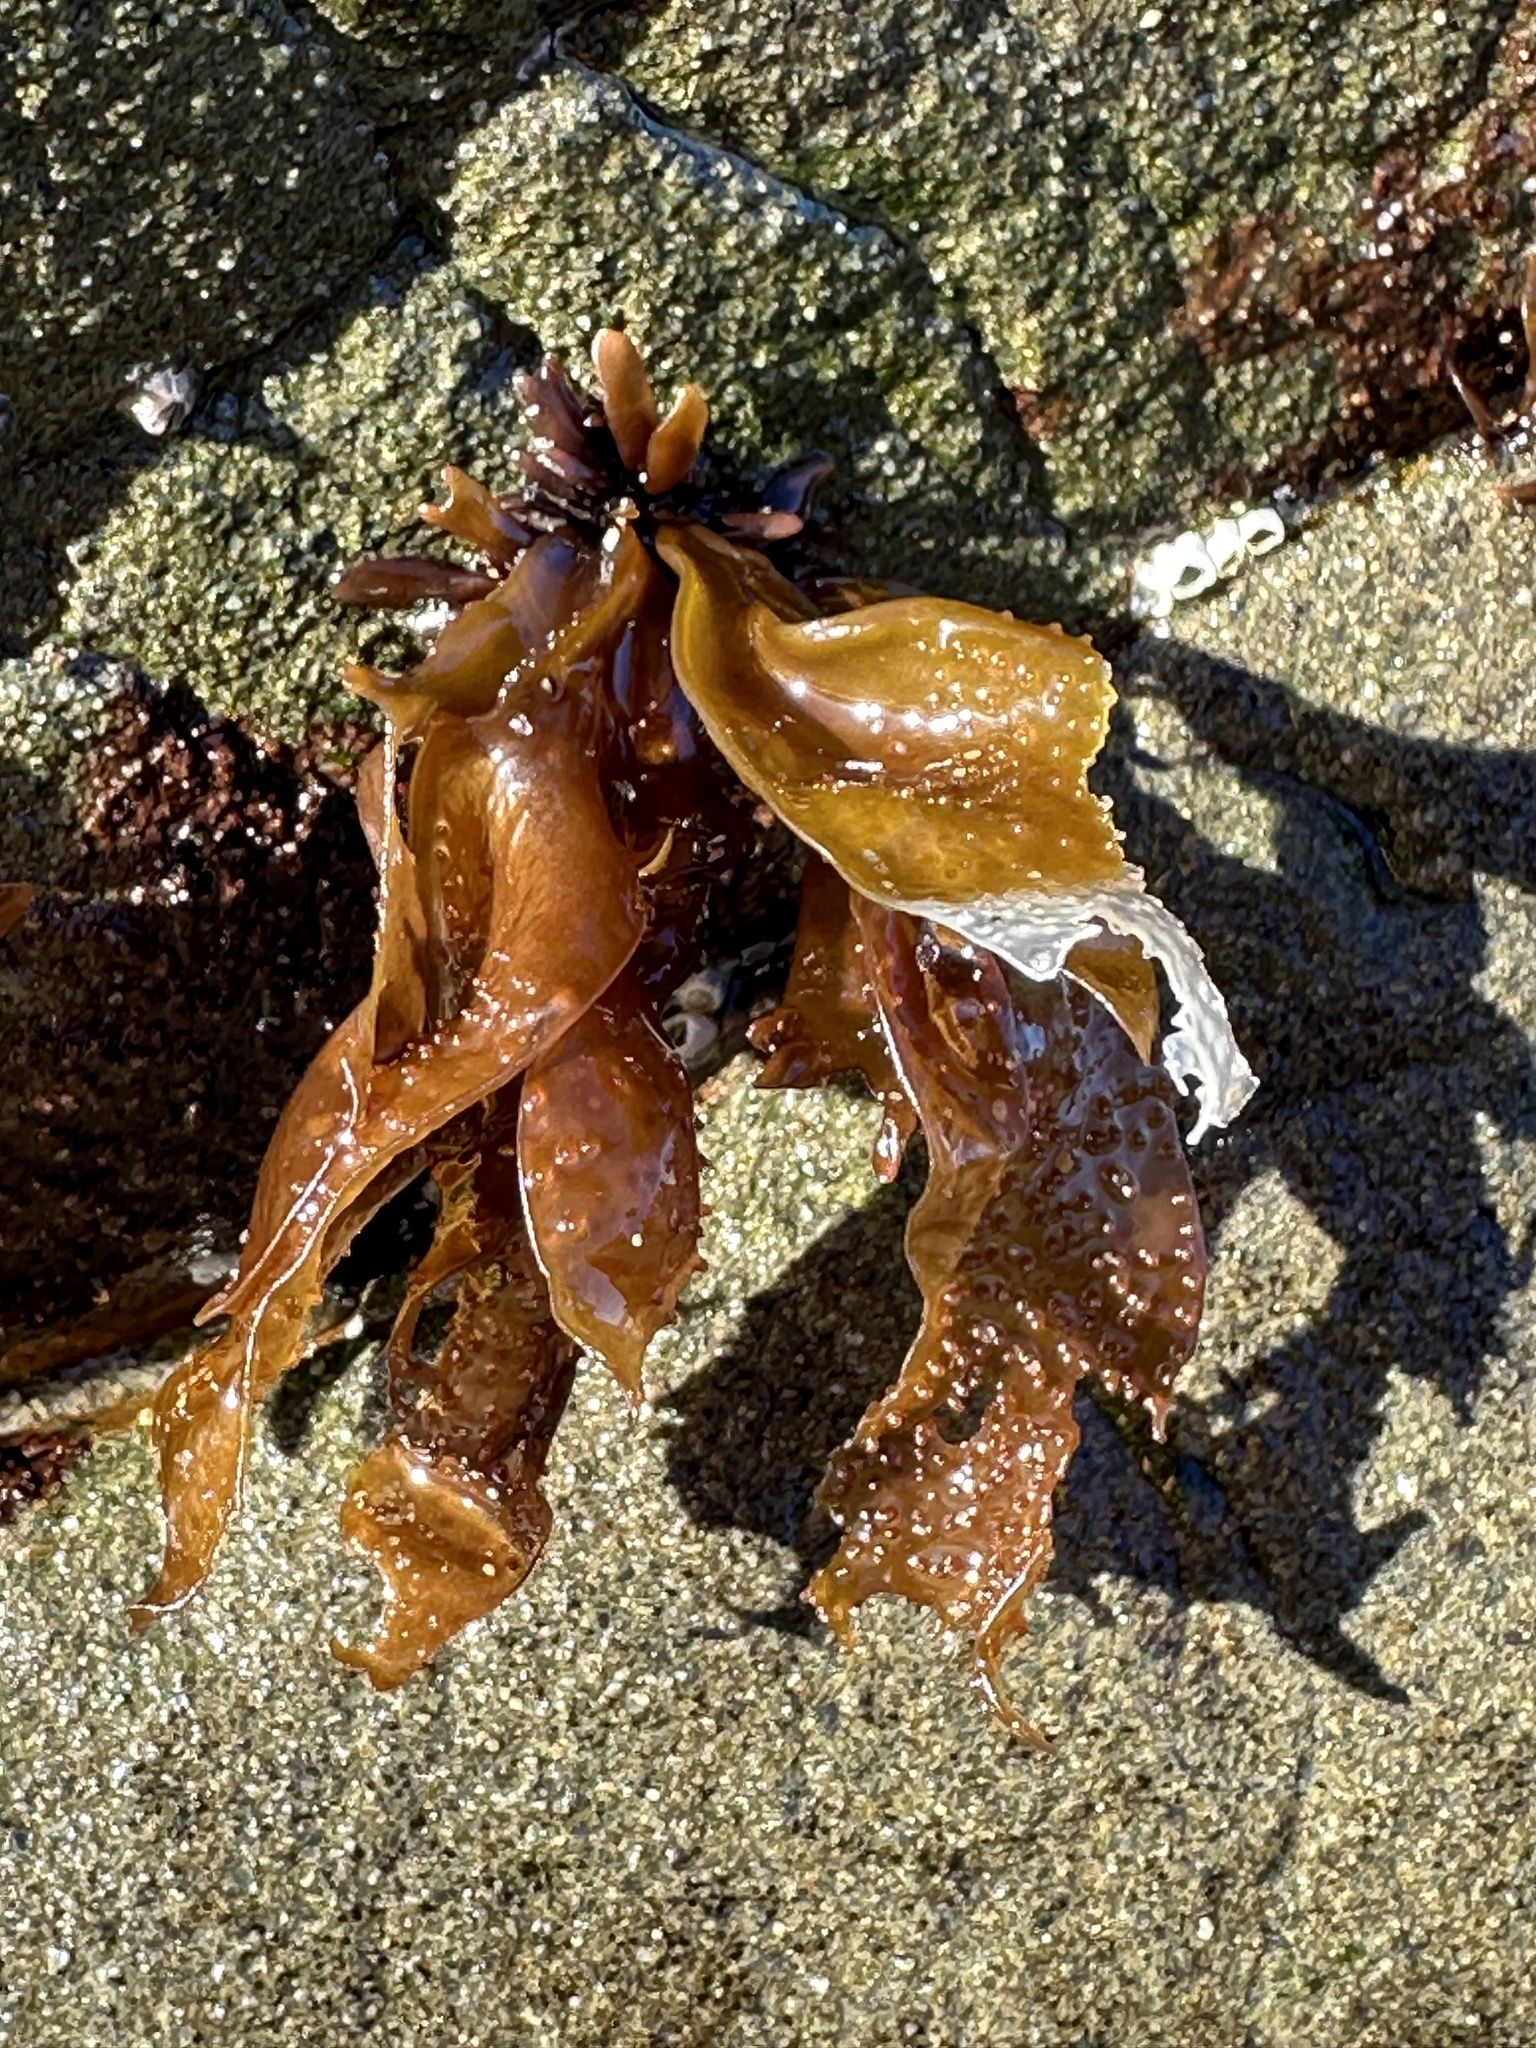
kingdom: Plantae
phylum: Rhodophyta
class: Florideophyceae
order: Gigartinales
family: Phyllophoraceae
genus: Mastocarpus
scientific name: Mastocarpus papillatus
